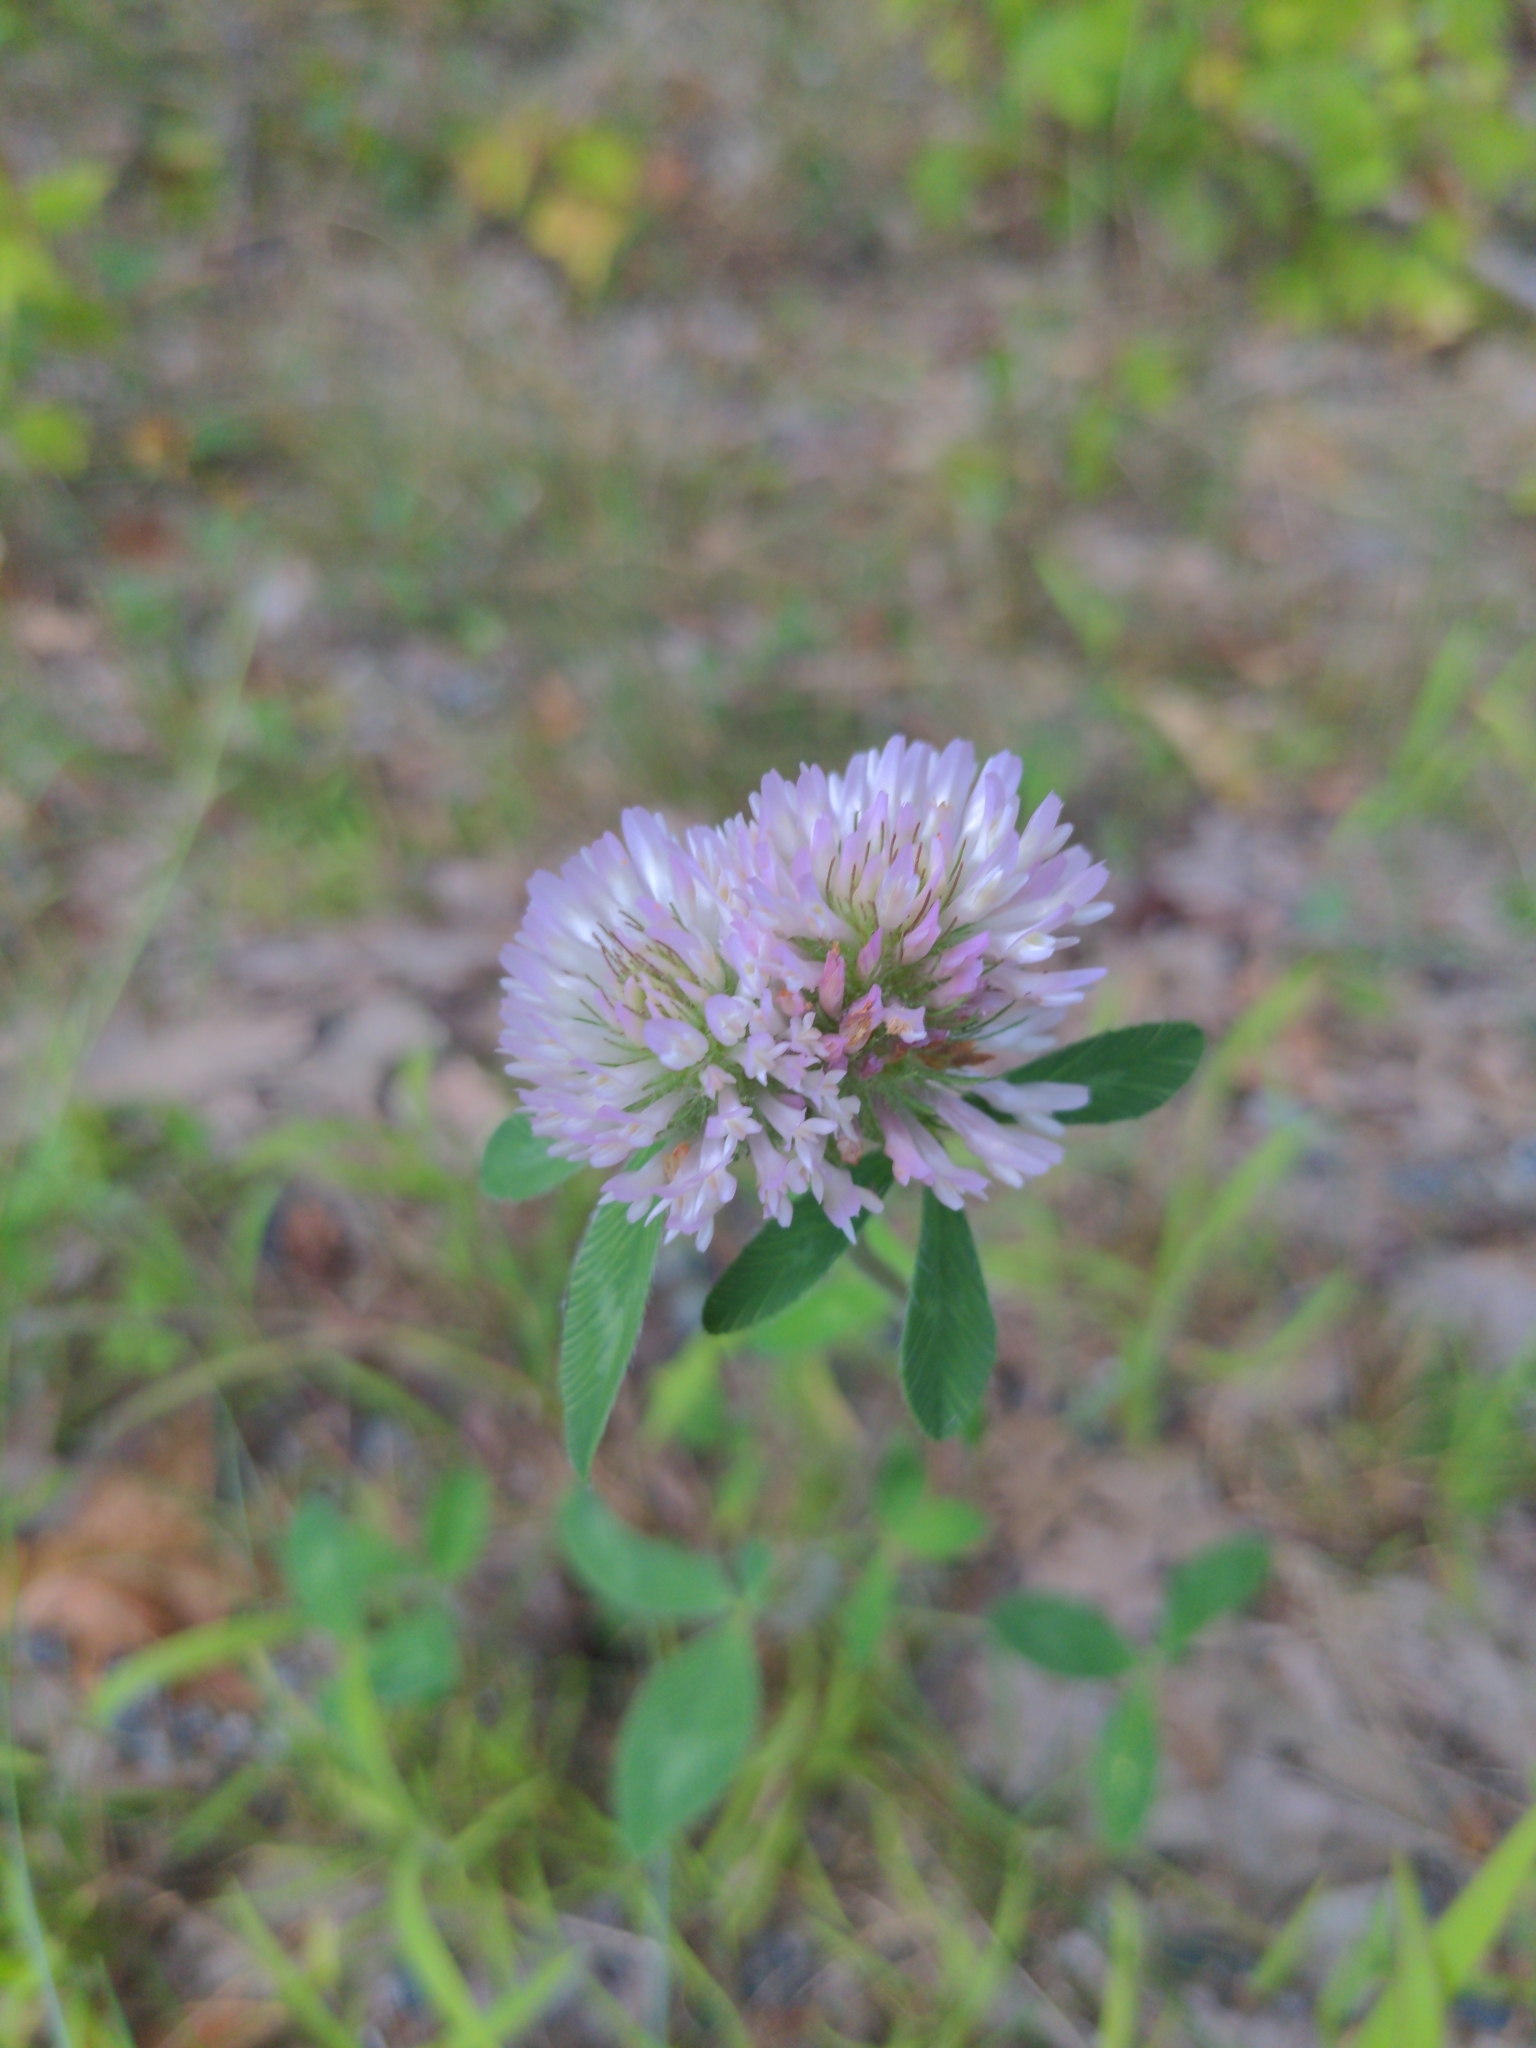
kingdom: Plantae
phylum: Tracheophyta
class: Magnoliopsida
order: Fabales
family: Fabaceae
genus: Trifolium
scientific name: Trifolium pratense
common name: Red clover
